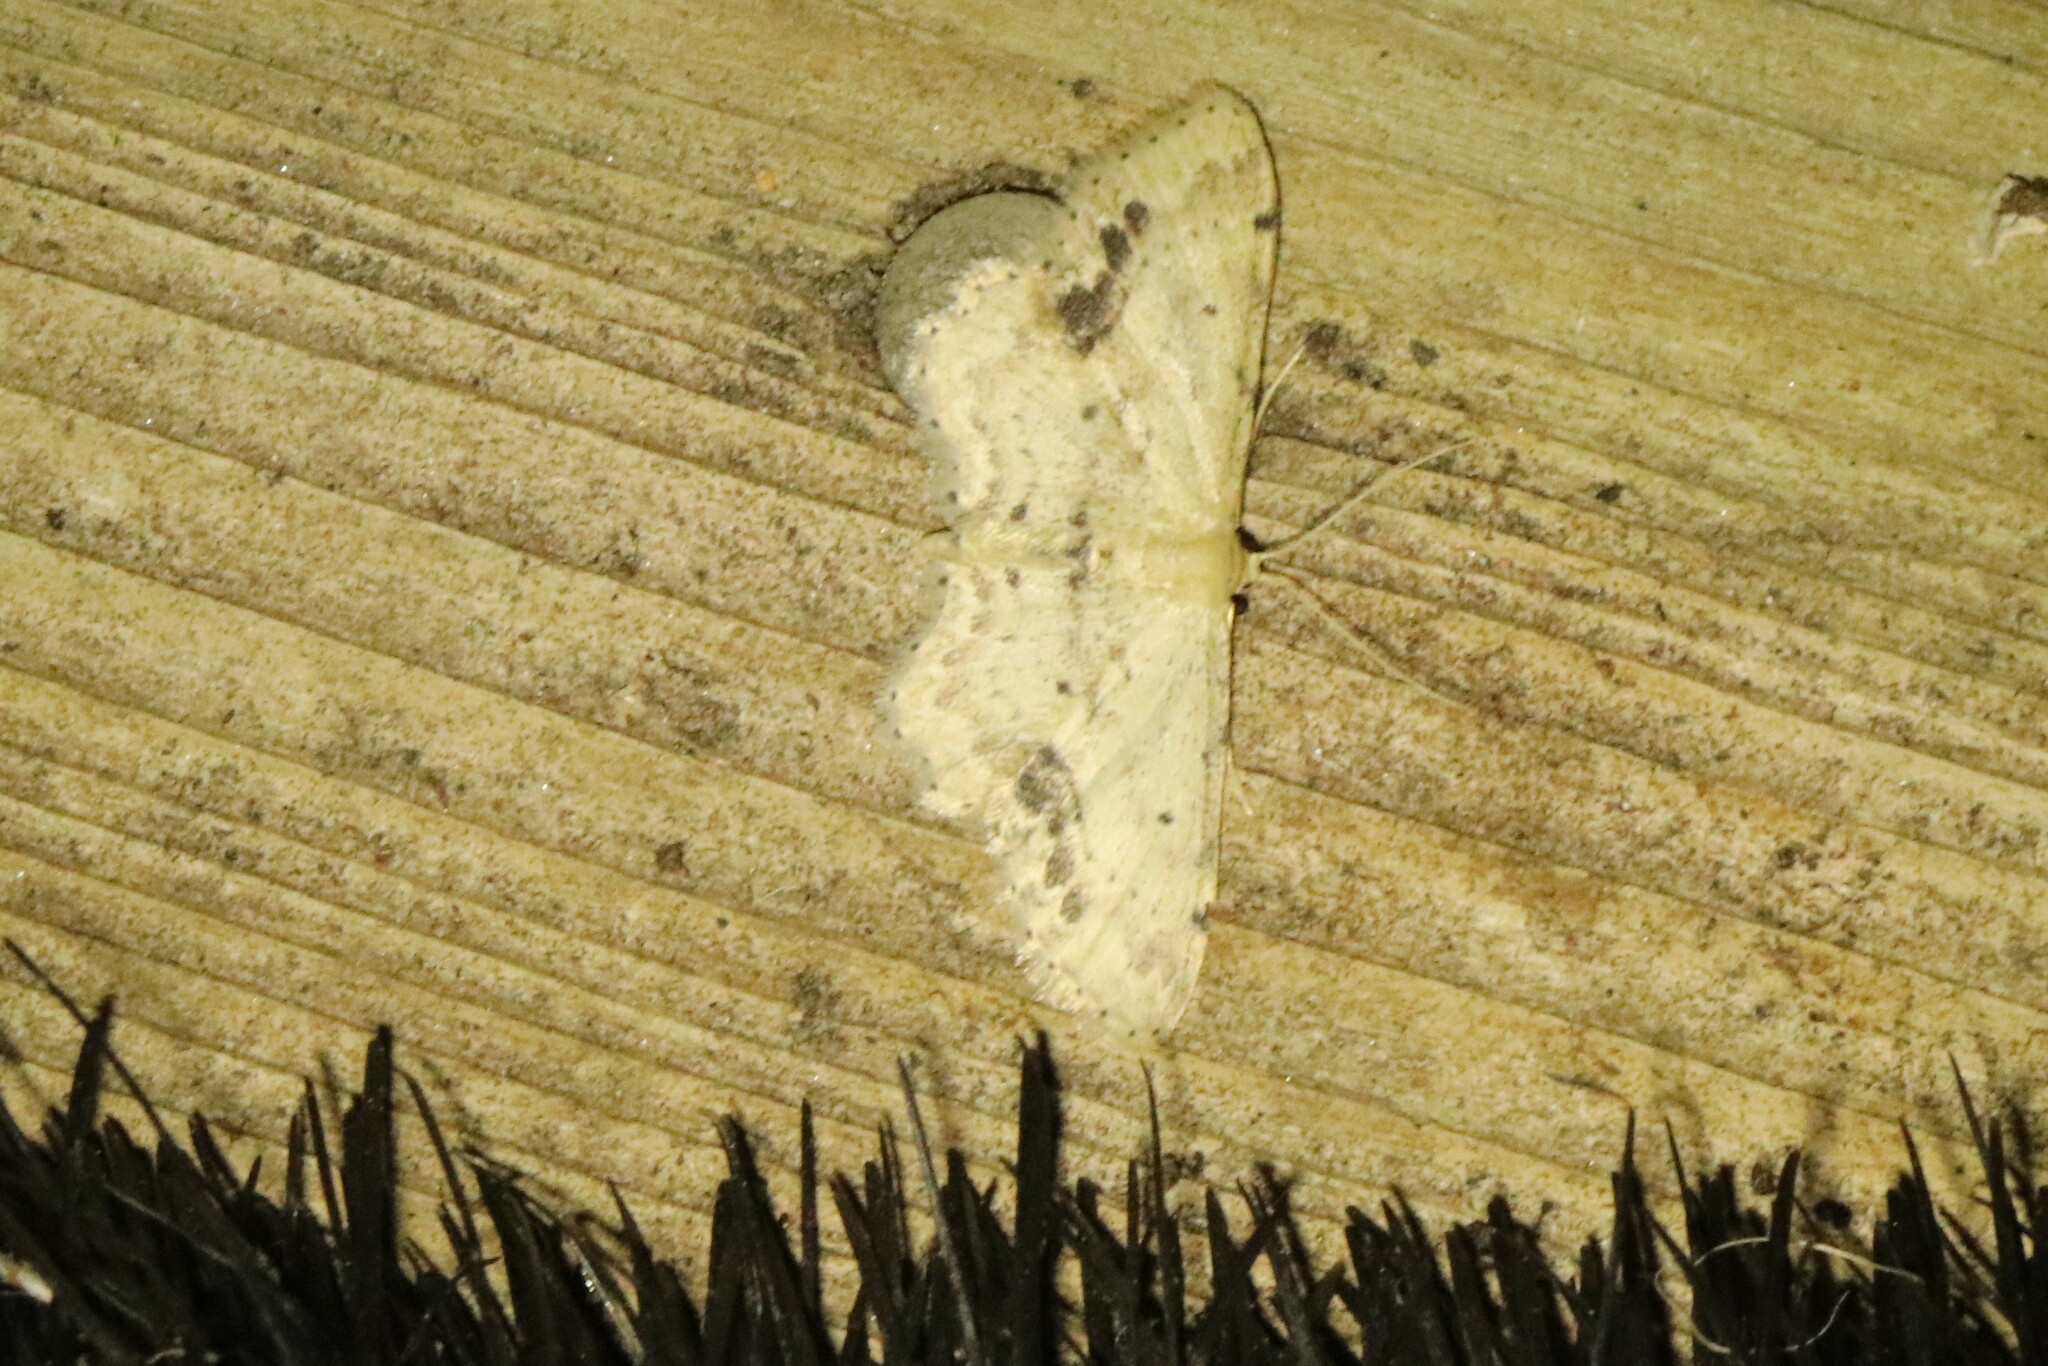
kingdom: Animalia
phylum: Arthropoda
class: Insecta
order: Lepidoptera
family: Geometridae
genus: Idaea
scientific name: Idaea dimidiata
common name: Single-dotted wave
